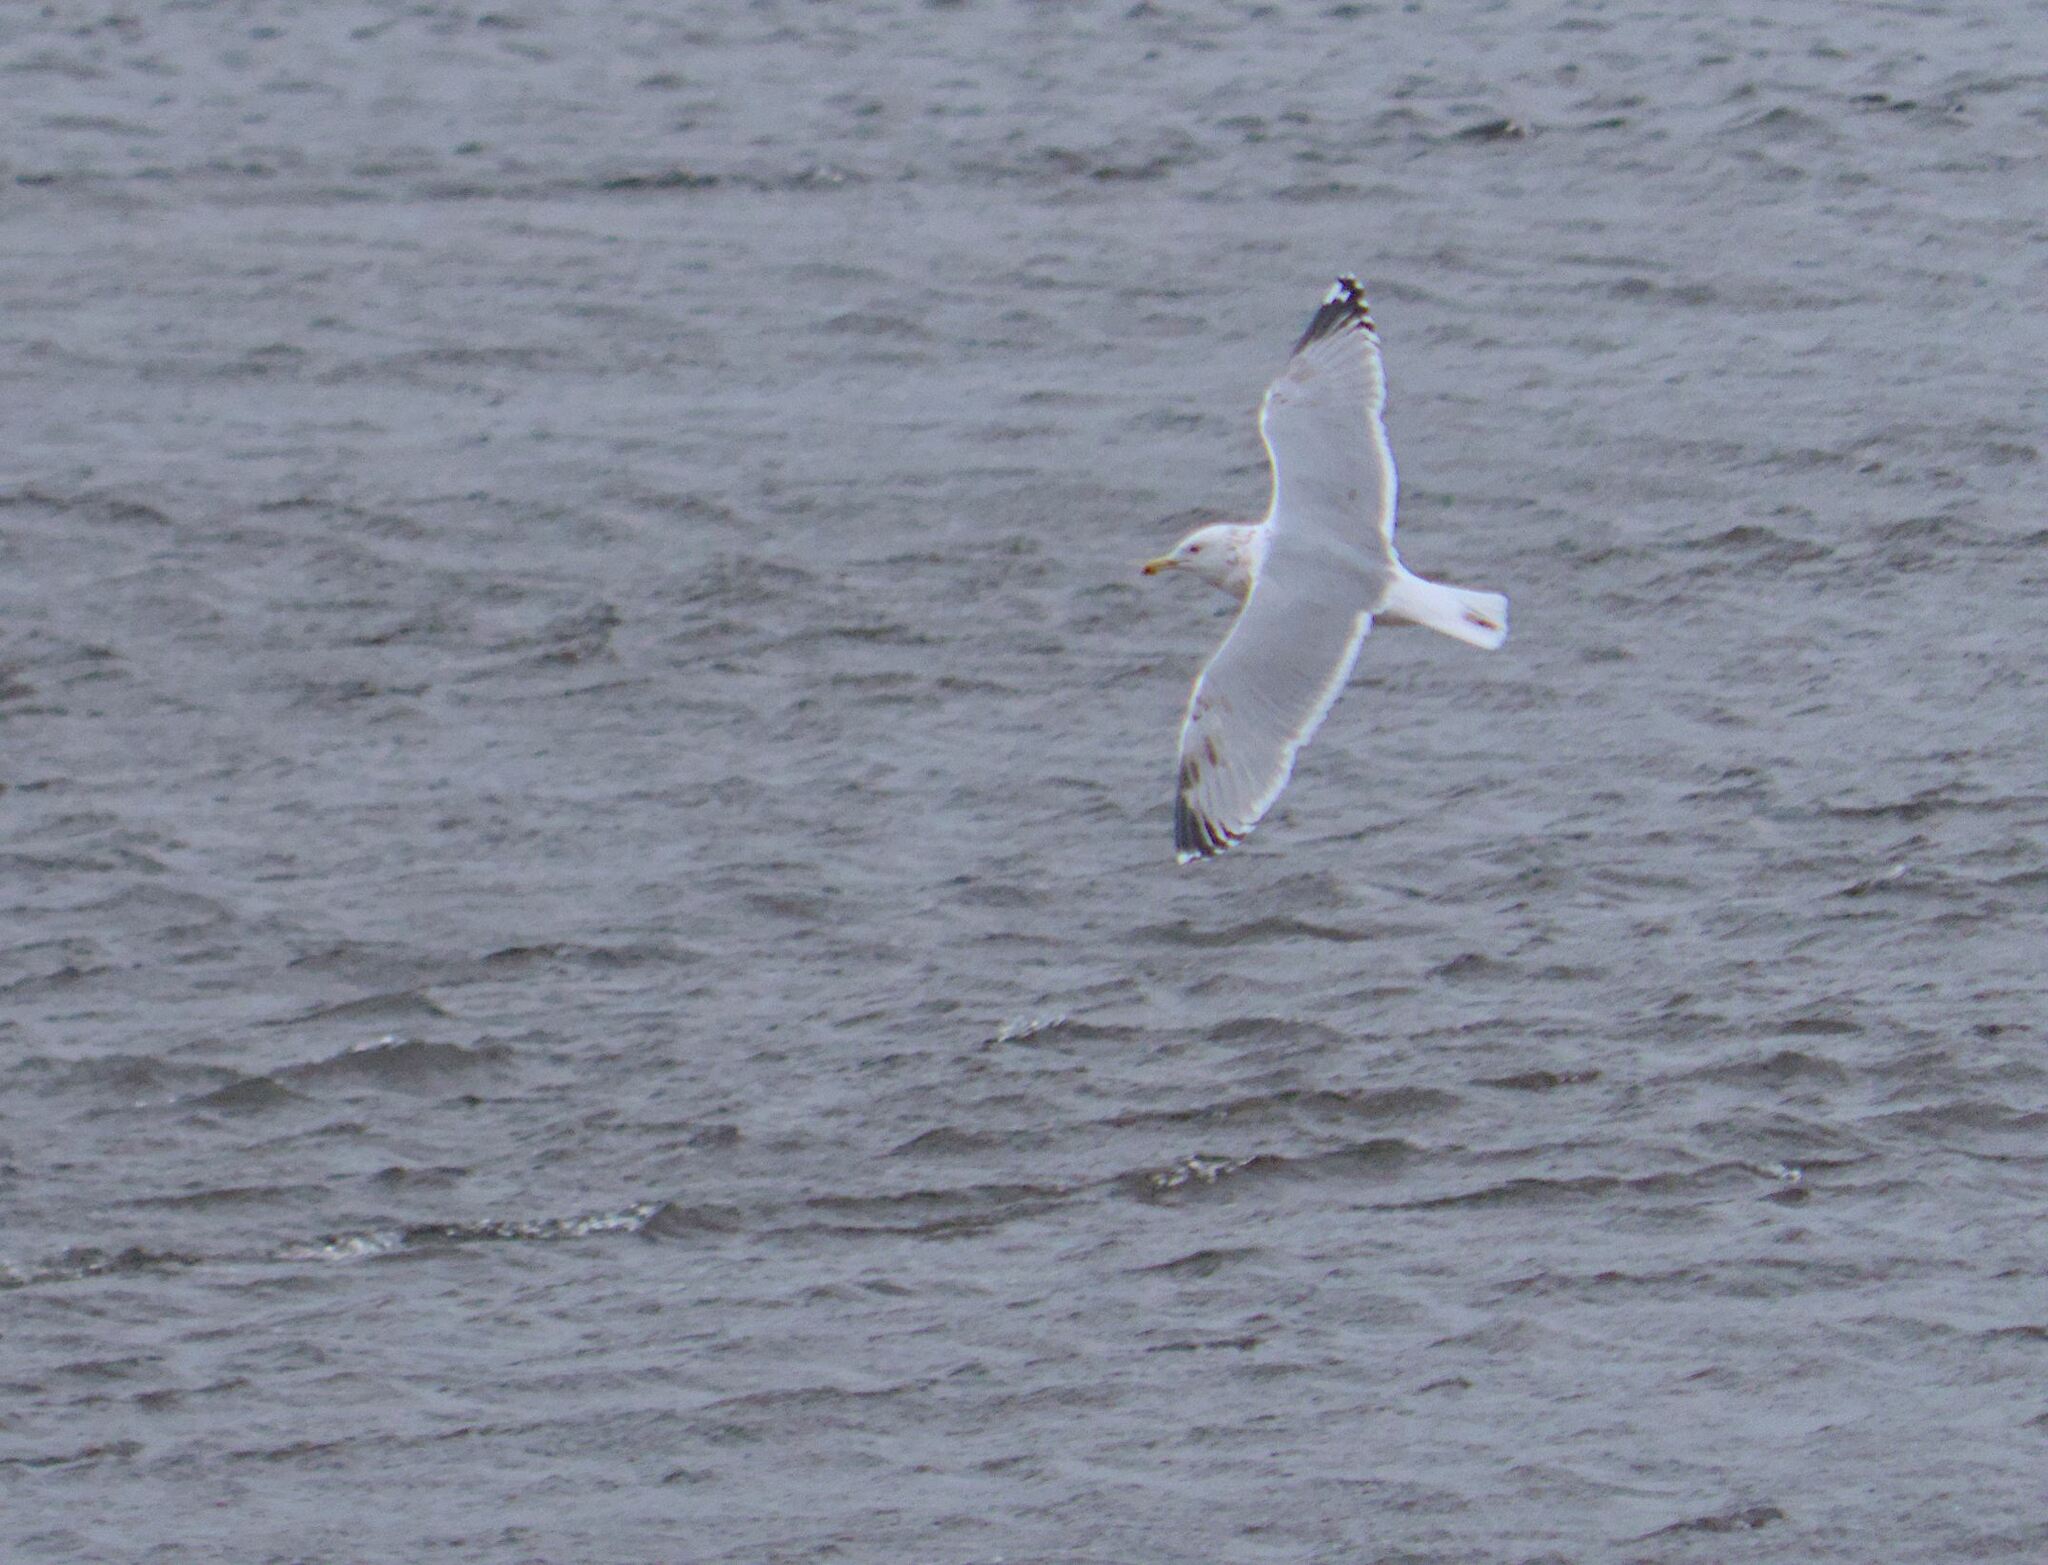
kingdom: Animalia
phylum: Chordata
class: Aves
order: Charadriiformes
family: Laridae
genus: Larus
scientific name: Larus argentatus
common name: Herring gull
